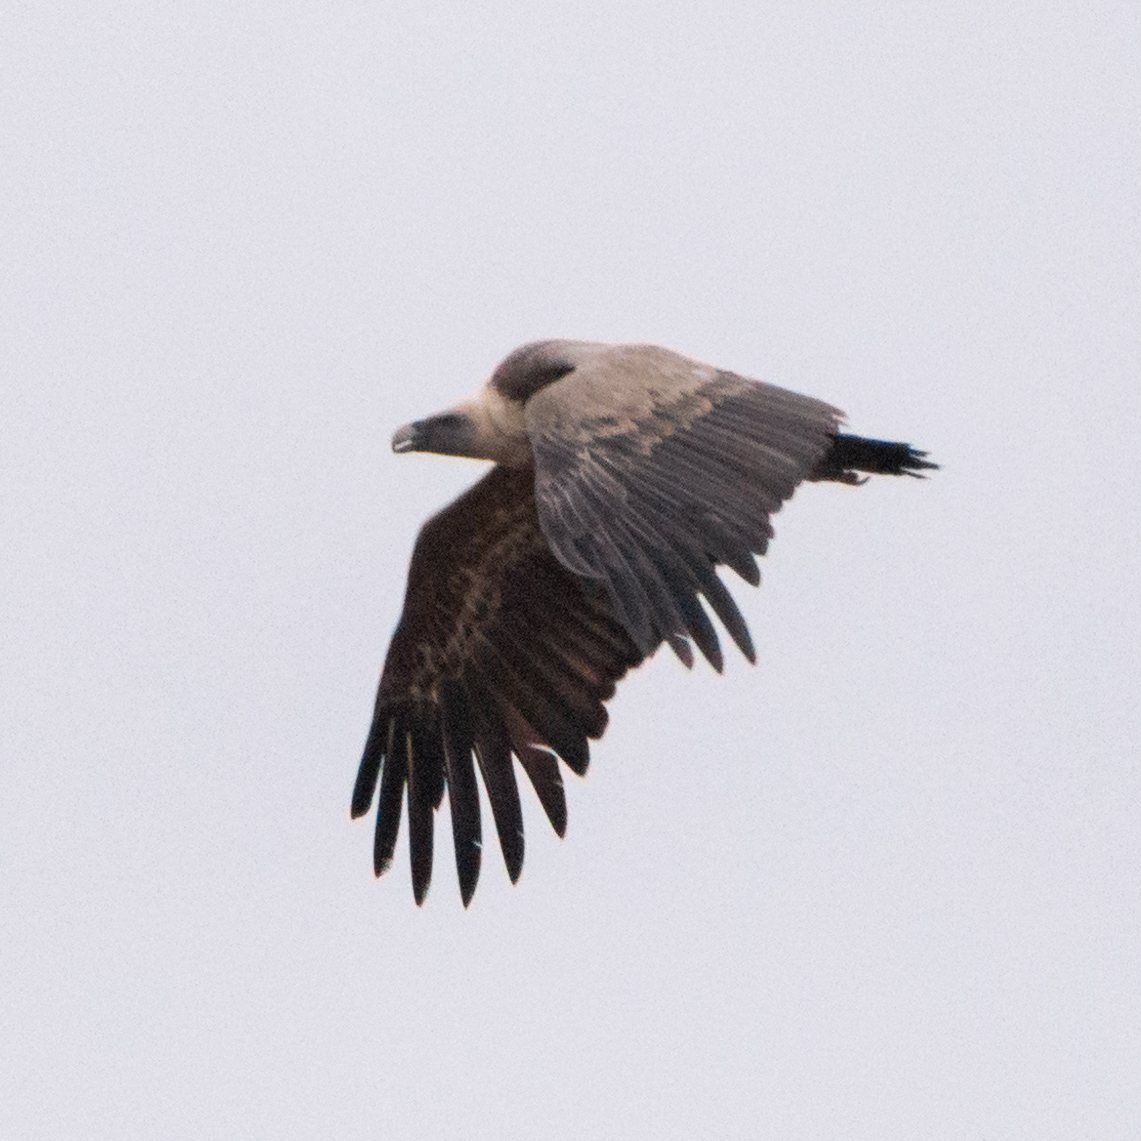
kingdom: Animalia
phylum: Chordata
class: Aves
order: Accipitriformes
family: Accipitridae
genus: Gyps
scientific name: Gyps fulvus
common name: Griffon vulture
